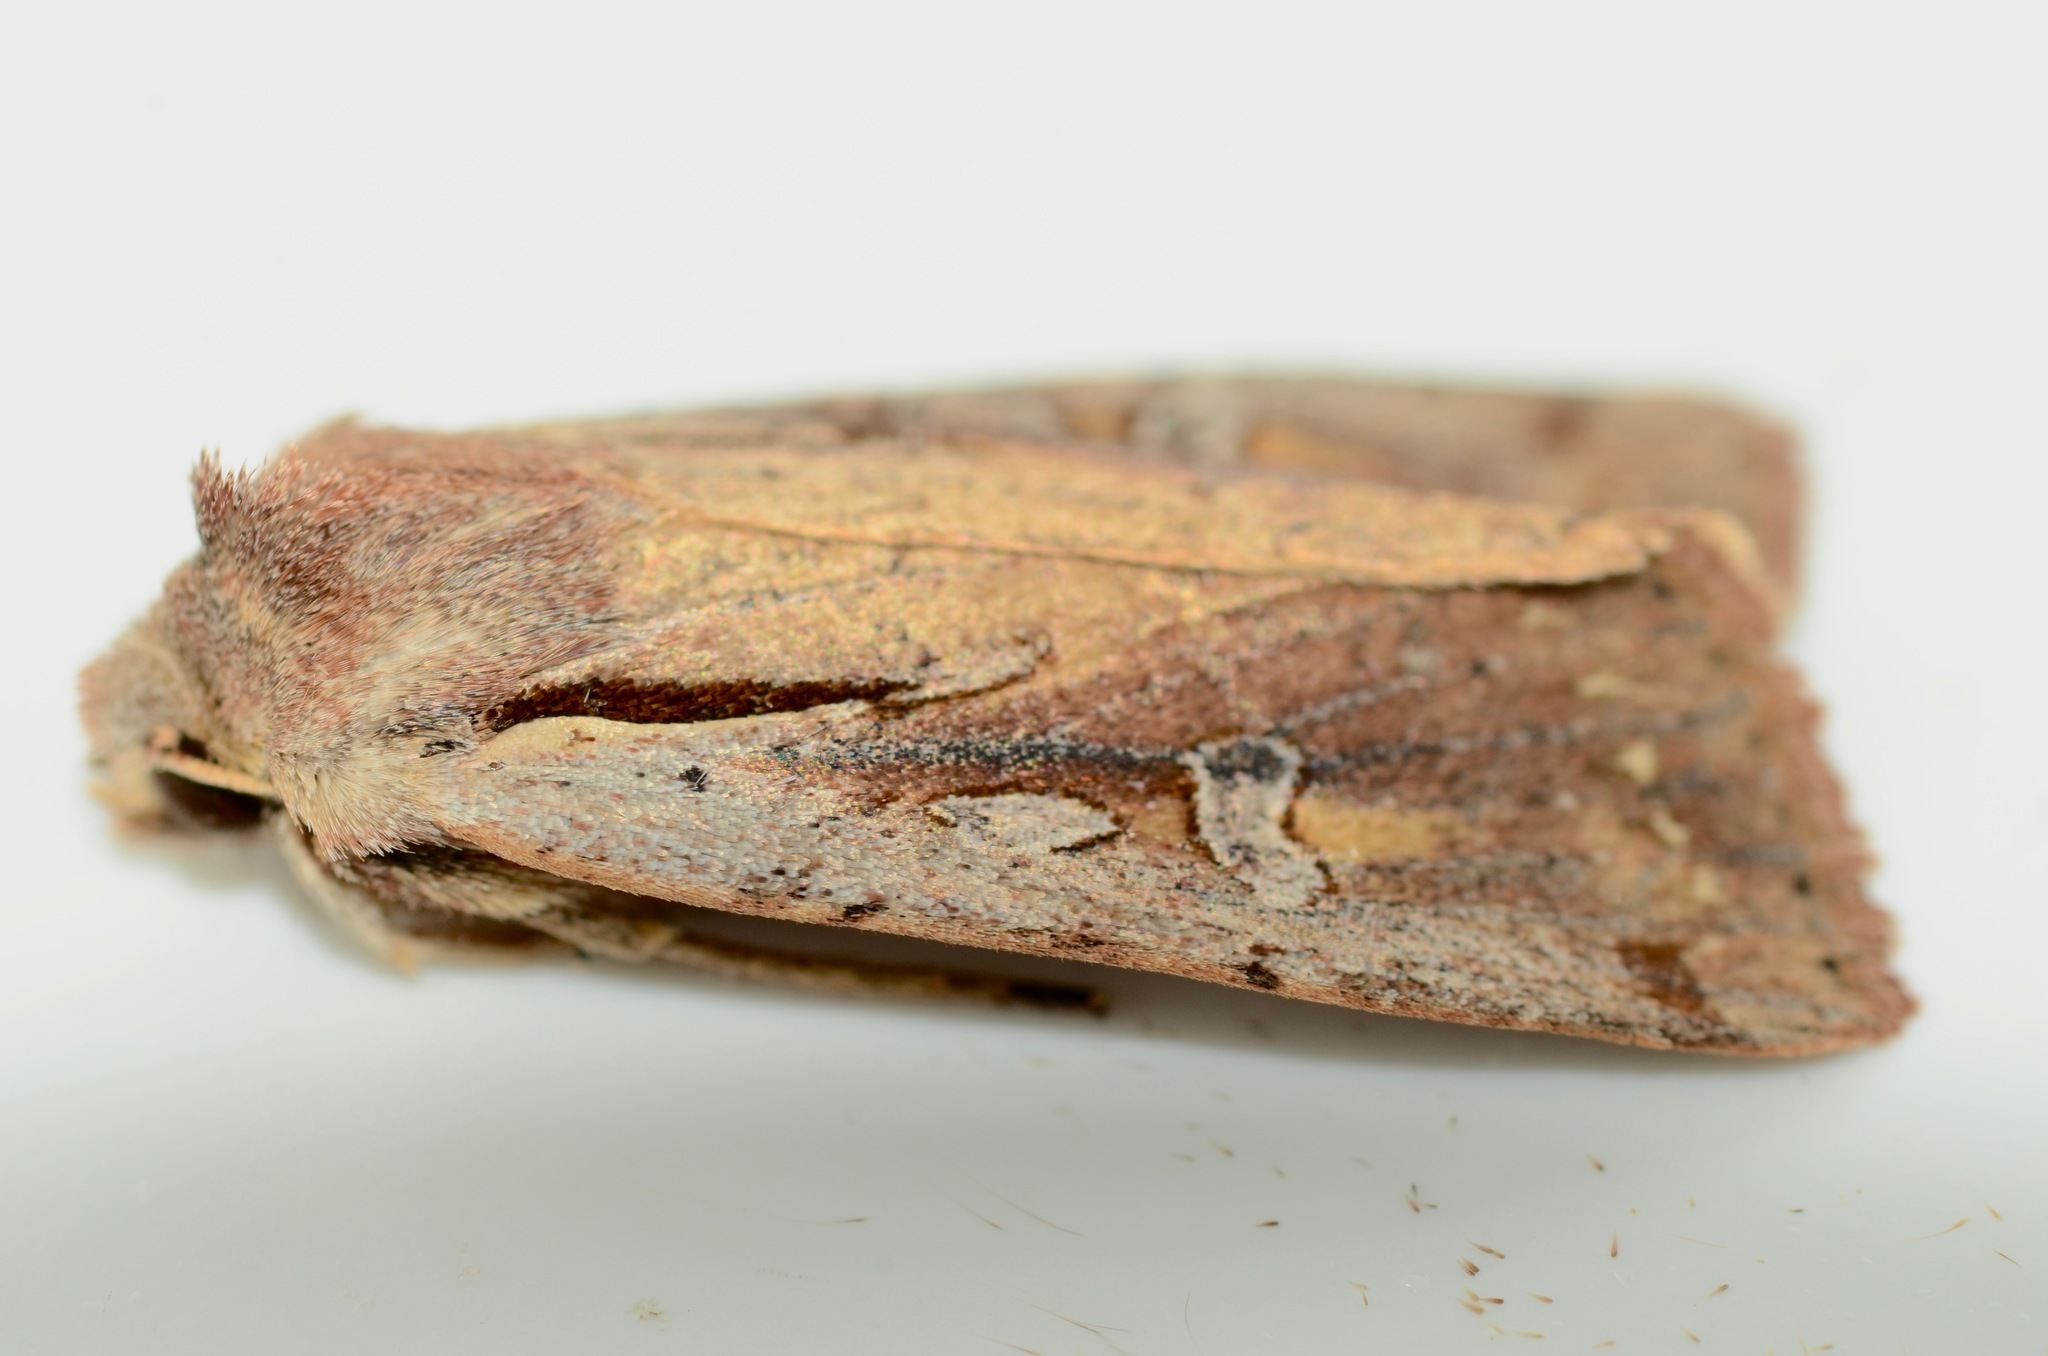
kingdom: Animalia
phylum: Arthropoda
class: Insecta
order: Lepidoptera
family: Noctuidae
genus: Ichneutica
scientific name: Ichneutica atristriga
